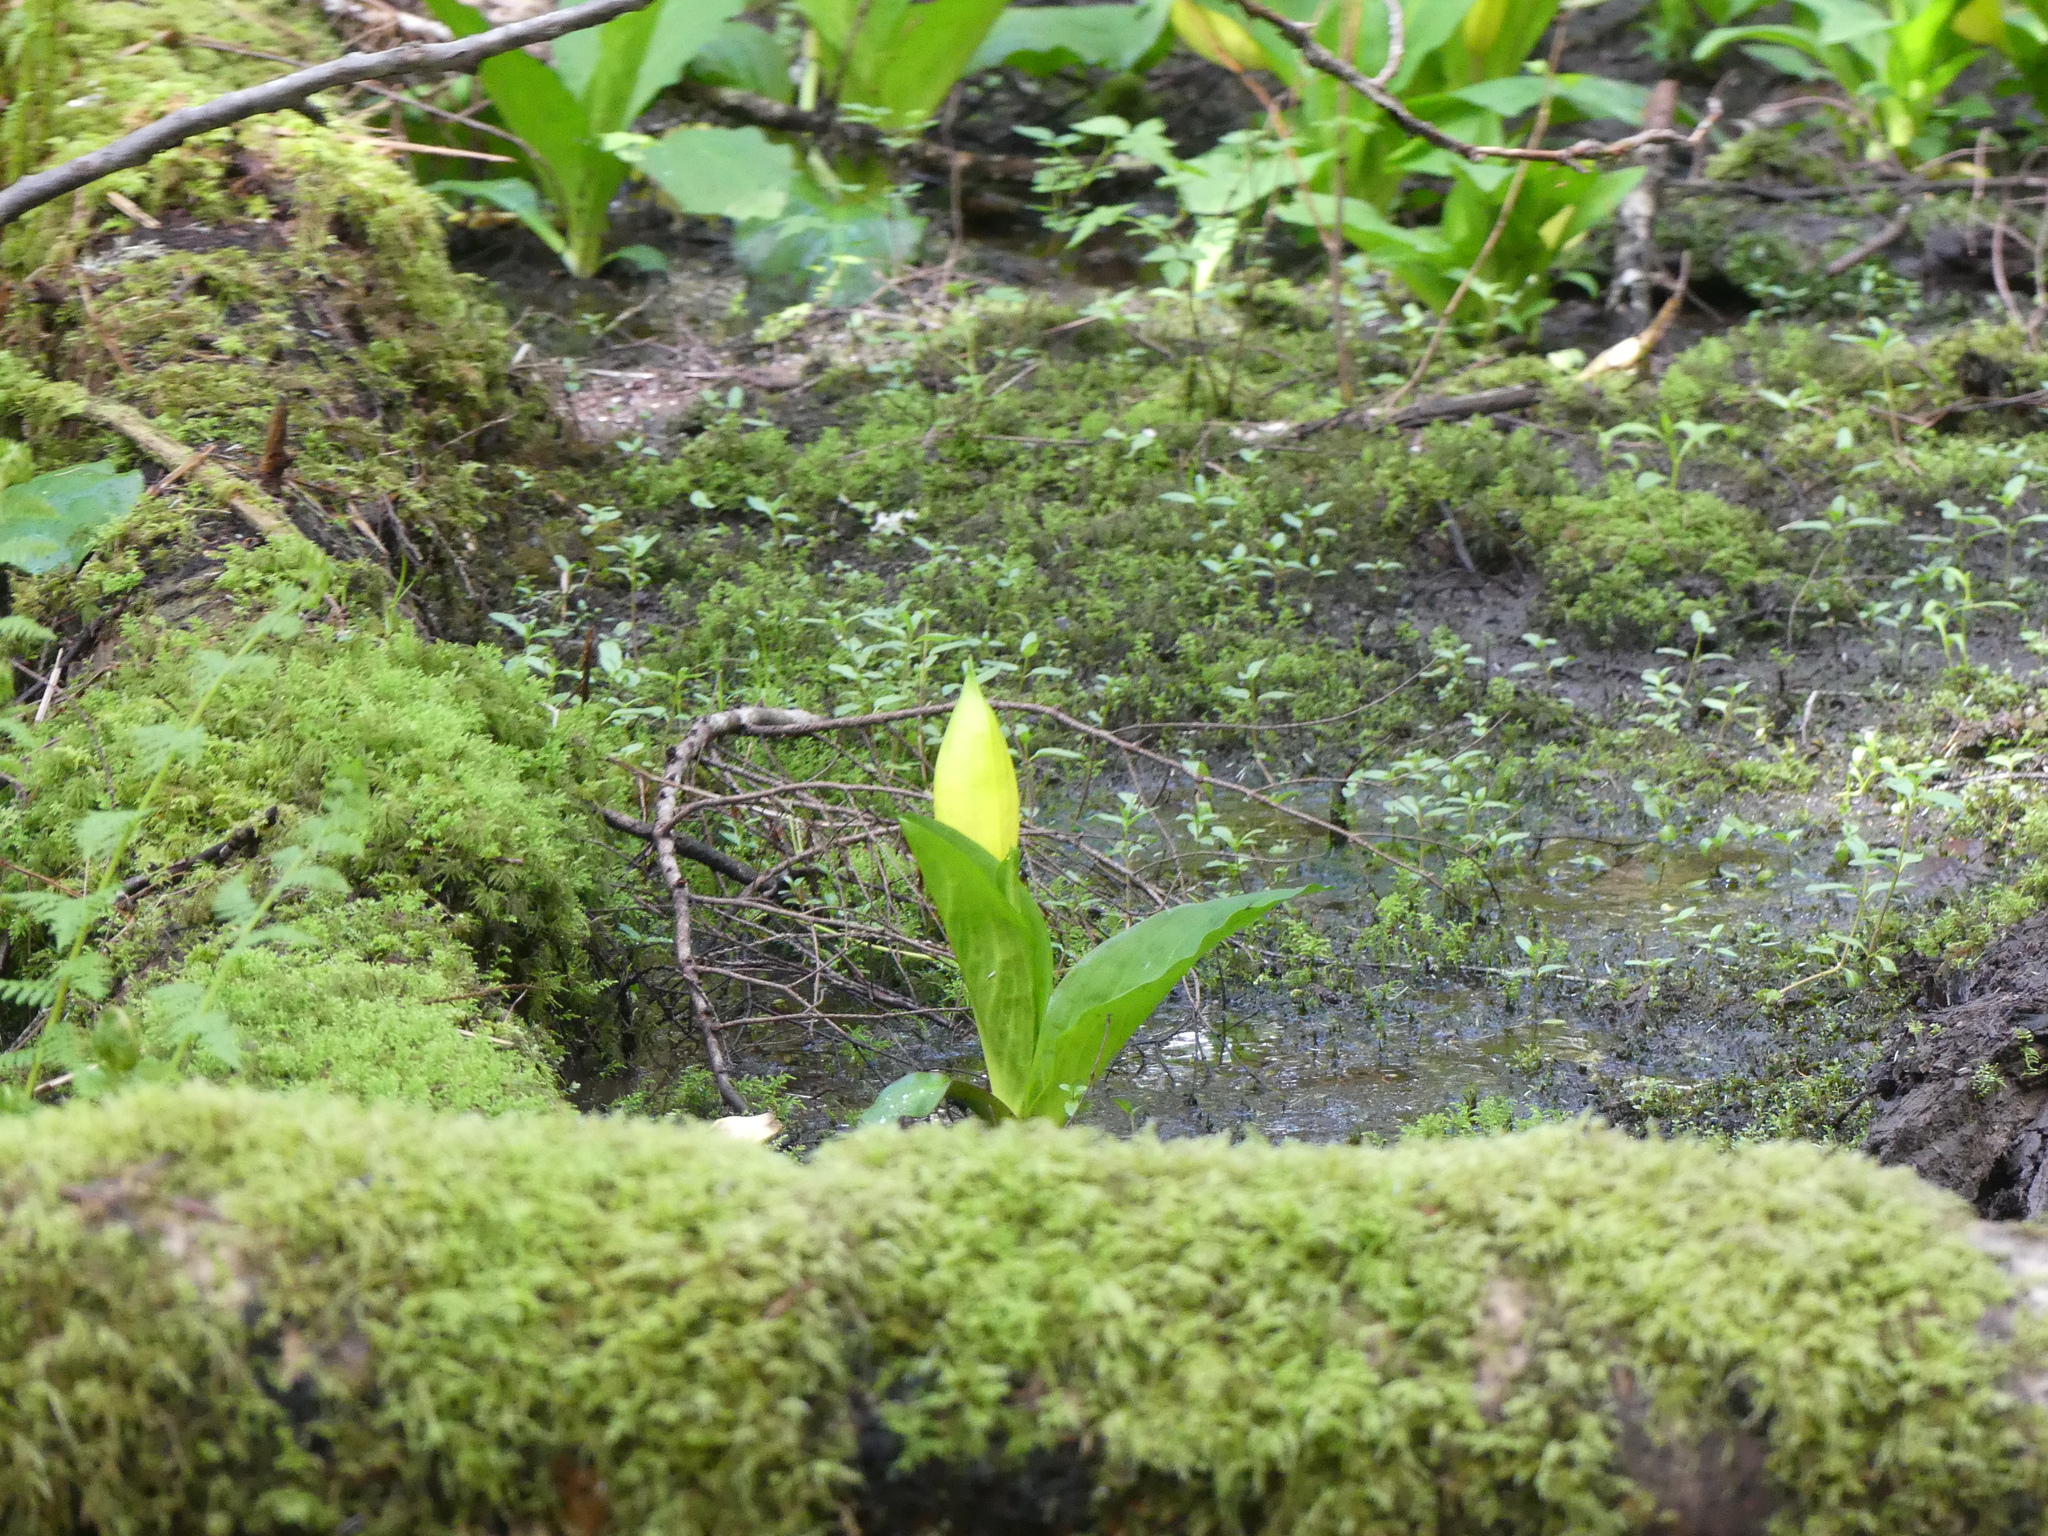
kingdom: Plantae
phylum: Tracheophyta
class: Liliopsida
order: Alismatales
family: Araceae
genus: Lysichiton
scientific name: Lysichiton americanus
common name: American skunk cabbage
